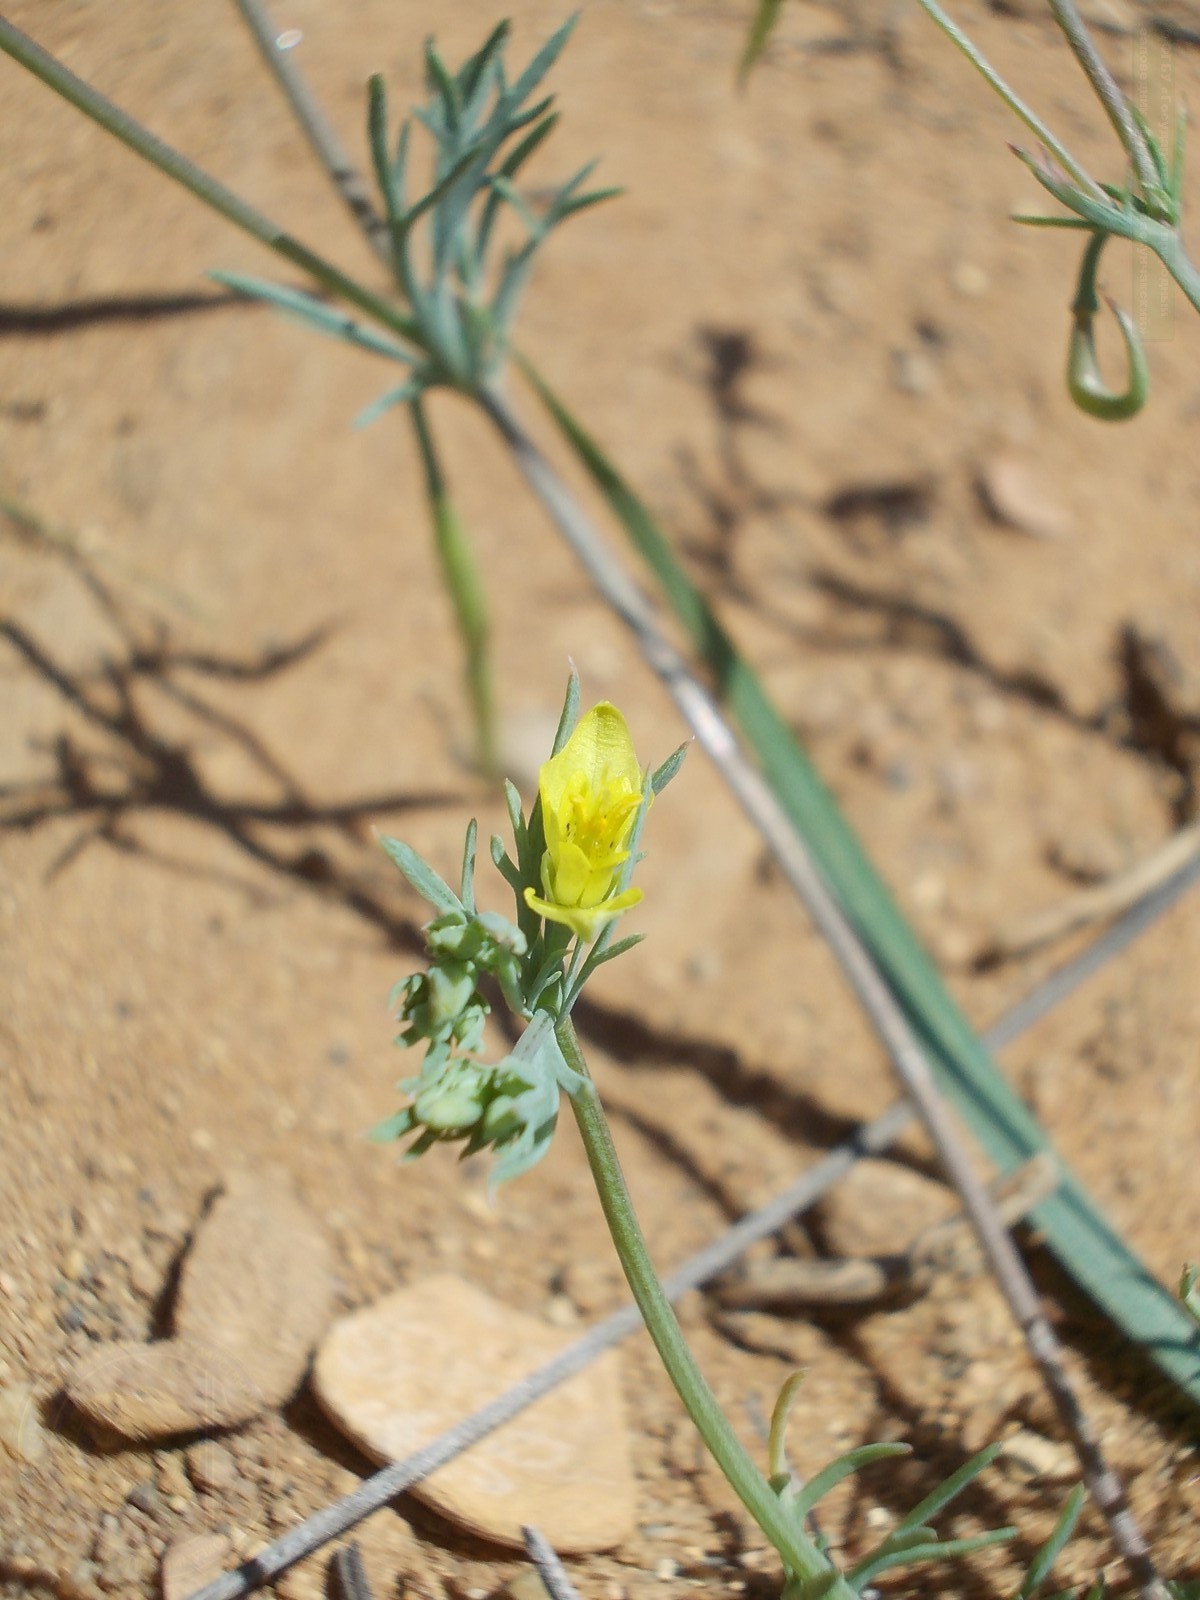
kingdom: Plantae
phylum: Tracheophyta
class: Magnoliopsida
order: Ranunculales
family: Papaveraceae
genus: Hypecoum
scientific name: Hypecoum pendulum
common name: Nodding hypecoum
